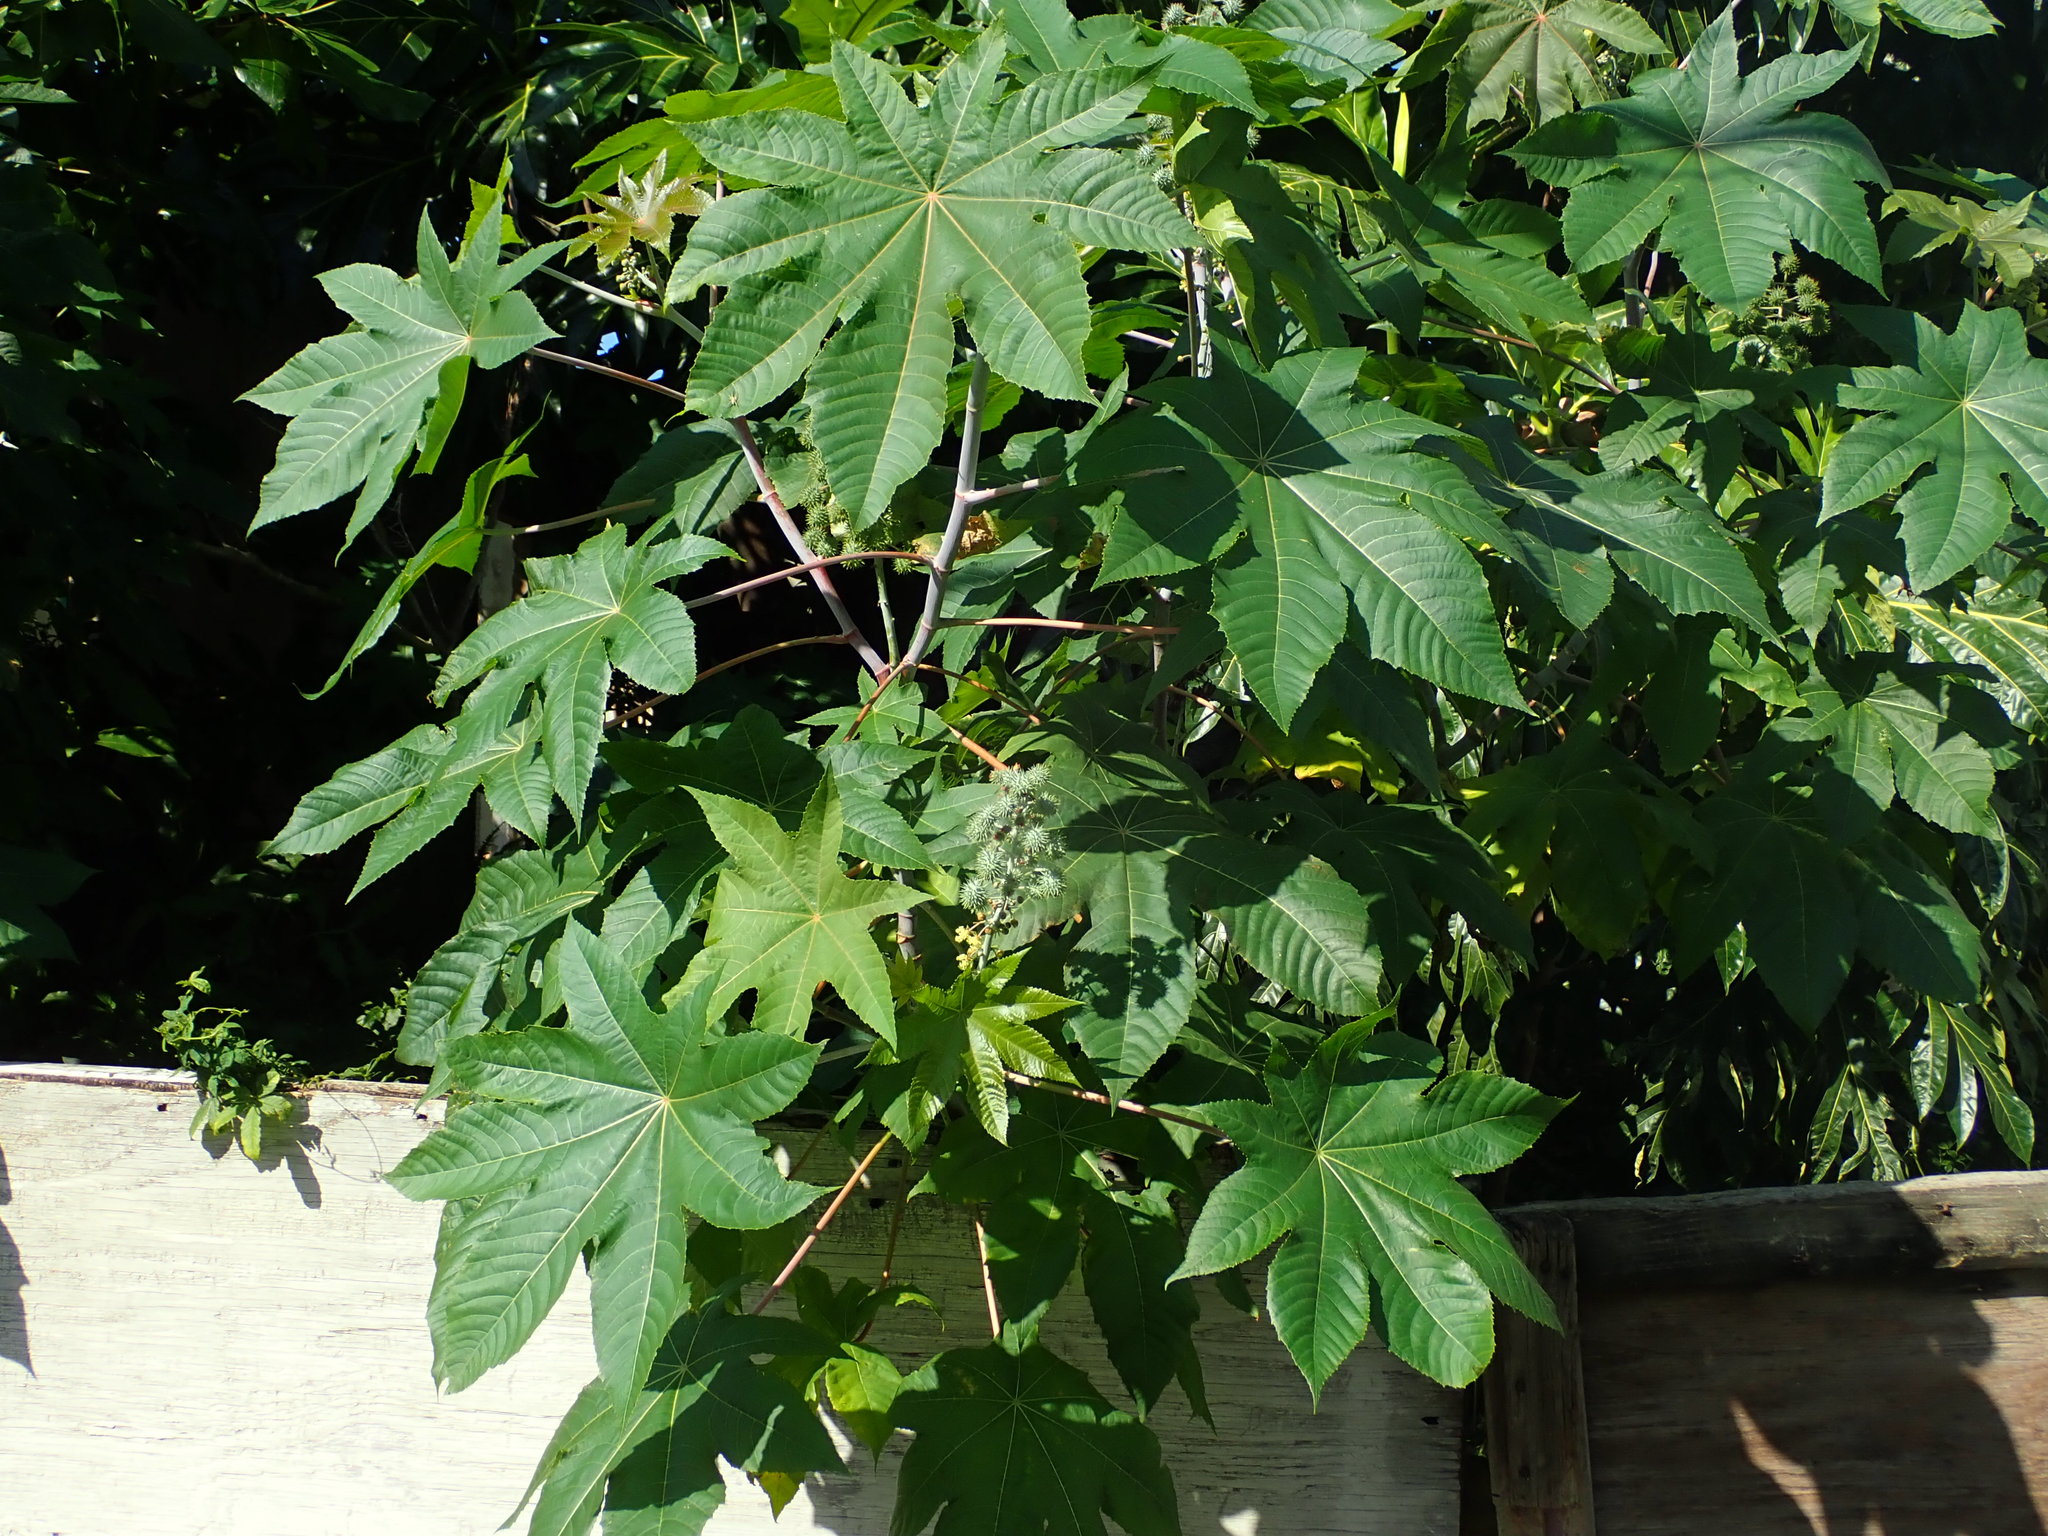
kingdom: Plantae
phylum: Tracheophyta
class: Magnoliopsida
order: Malpighiales
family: Euphorbiaceae
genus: Ricinus
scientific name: Ricinus communis
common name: Castor-oil-plant
